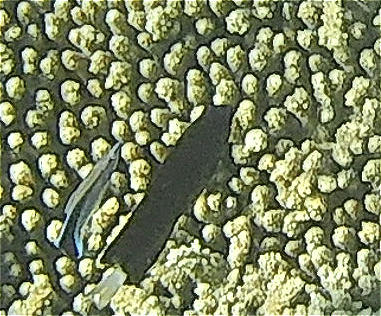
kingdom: Animalia
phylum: Chordata
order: Perciformes
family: Labridae
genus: Labroides
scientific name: Labroides dimidiatus
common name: Blue diesel wrasse
